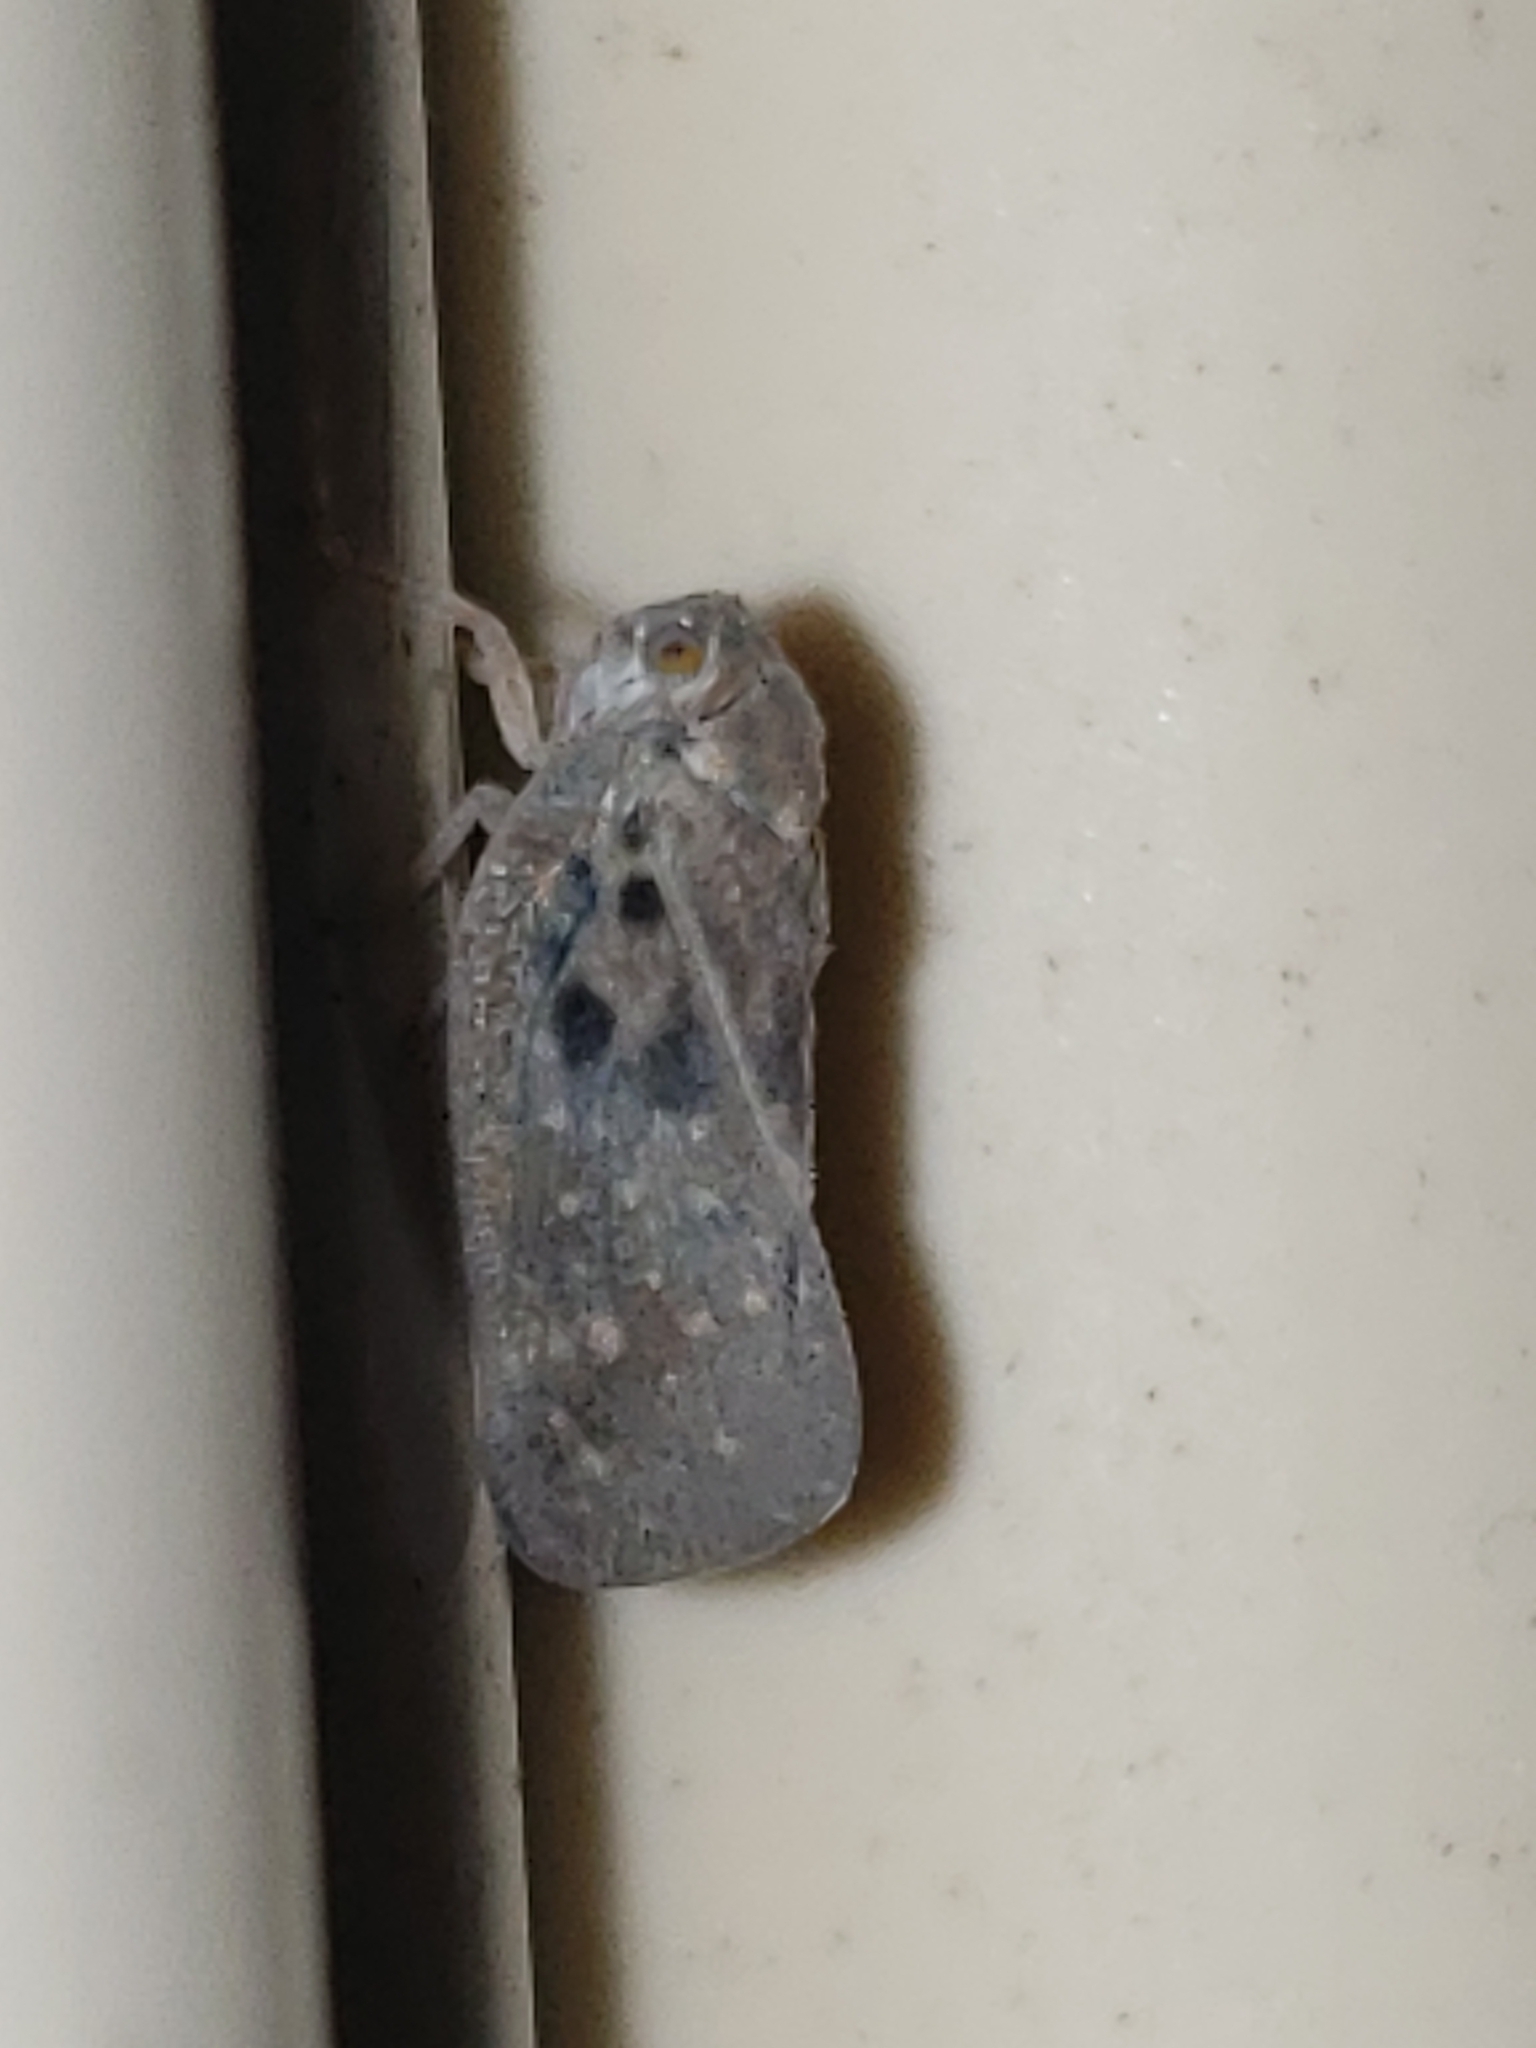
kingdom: Animalia
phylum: Arthropoda
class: Insecta
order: Hemiptera
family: Flatidae
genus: Metcalfa
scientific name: Metcalfa pruinosa
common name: Citrus flatid planthopper
